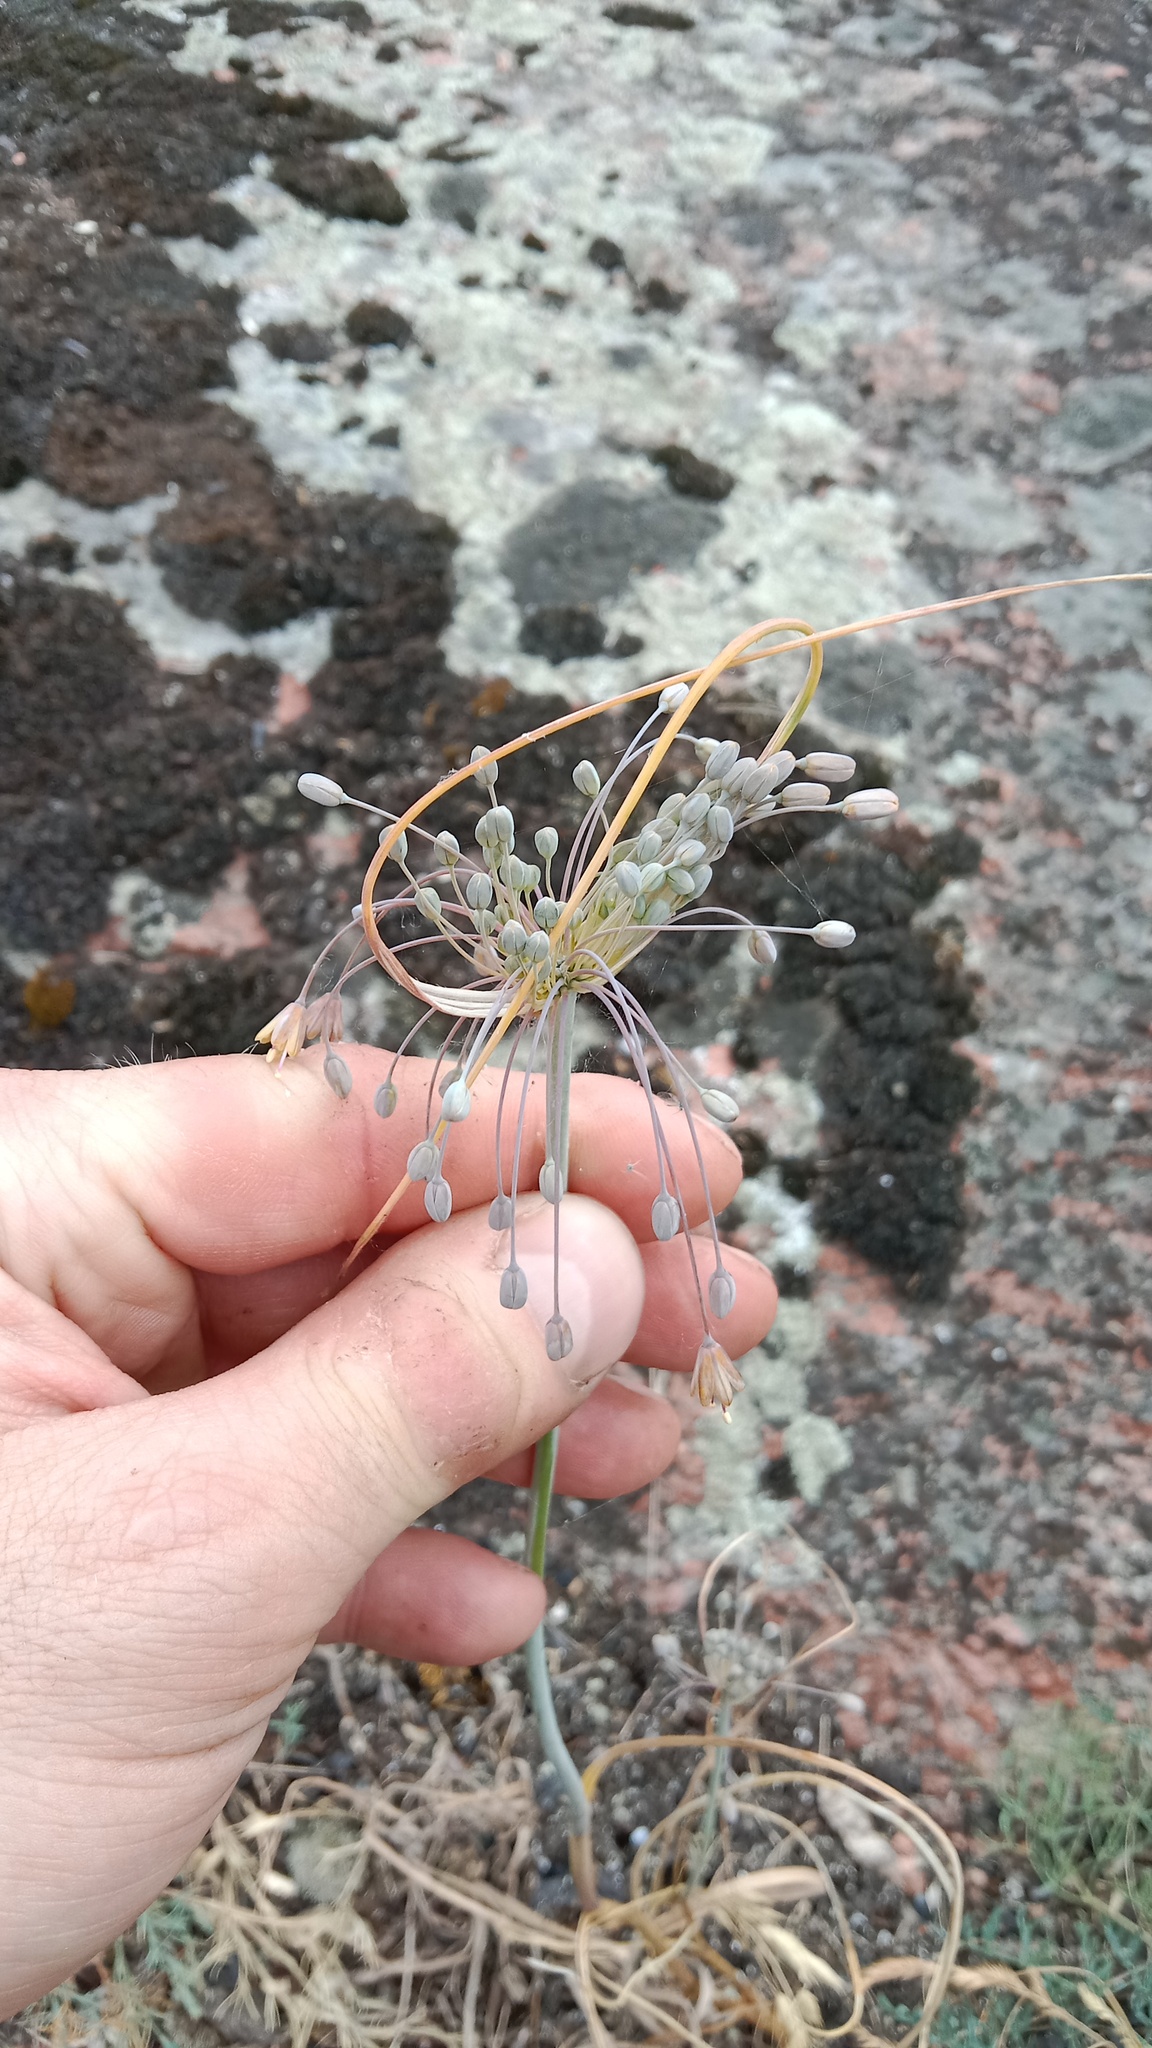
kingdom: Plantae
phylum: Tracheophyta
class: Liliopsida
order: Asparagales
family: Amaryllidaceae
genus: Allium
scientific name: Allium flavum
